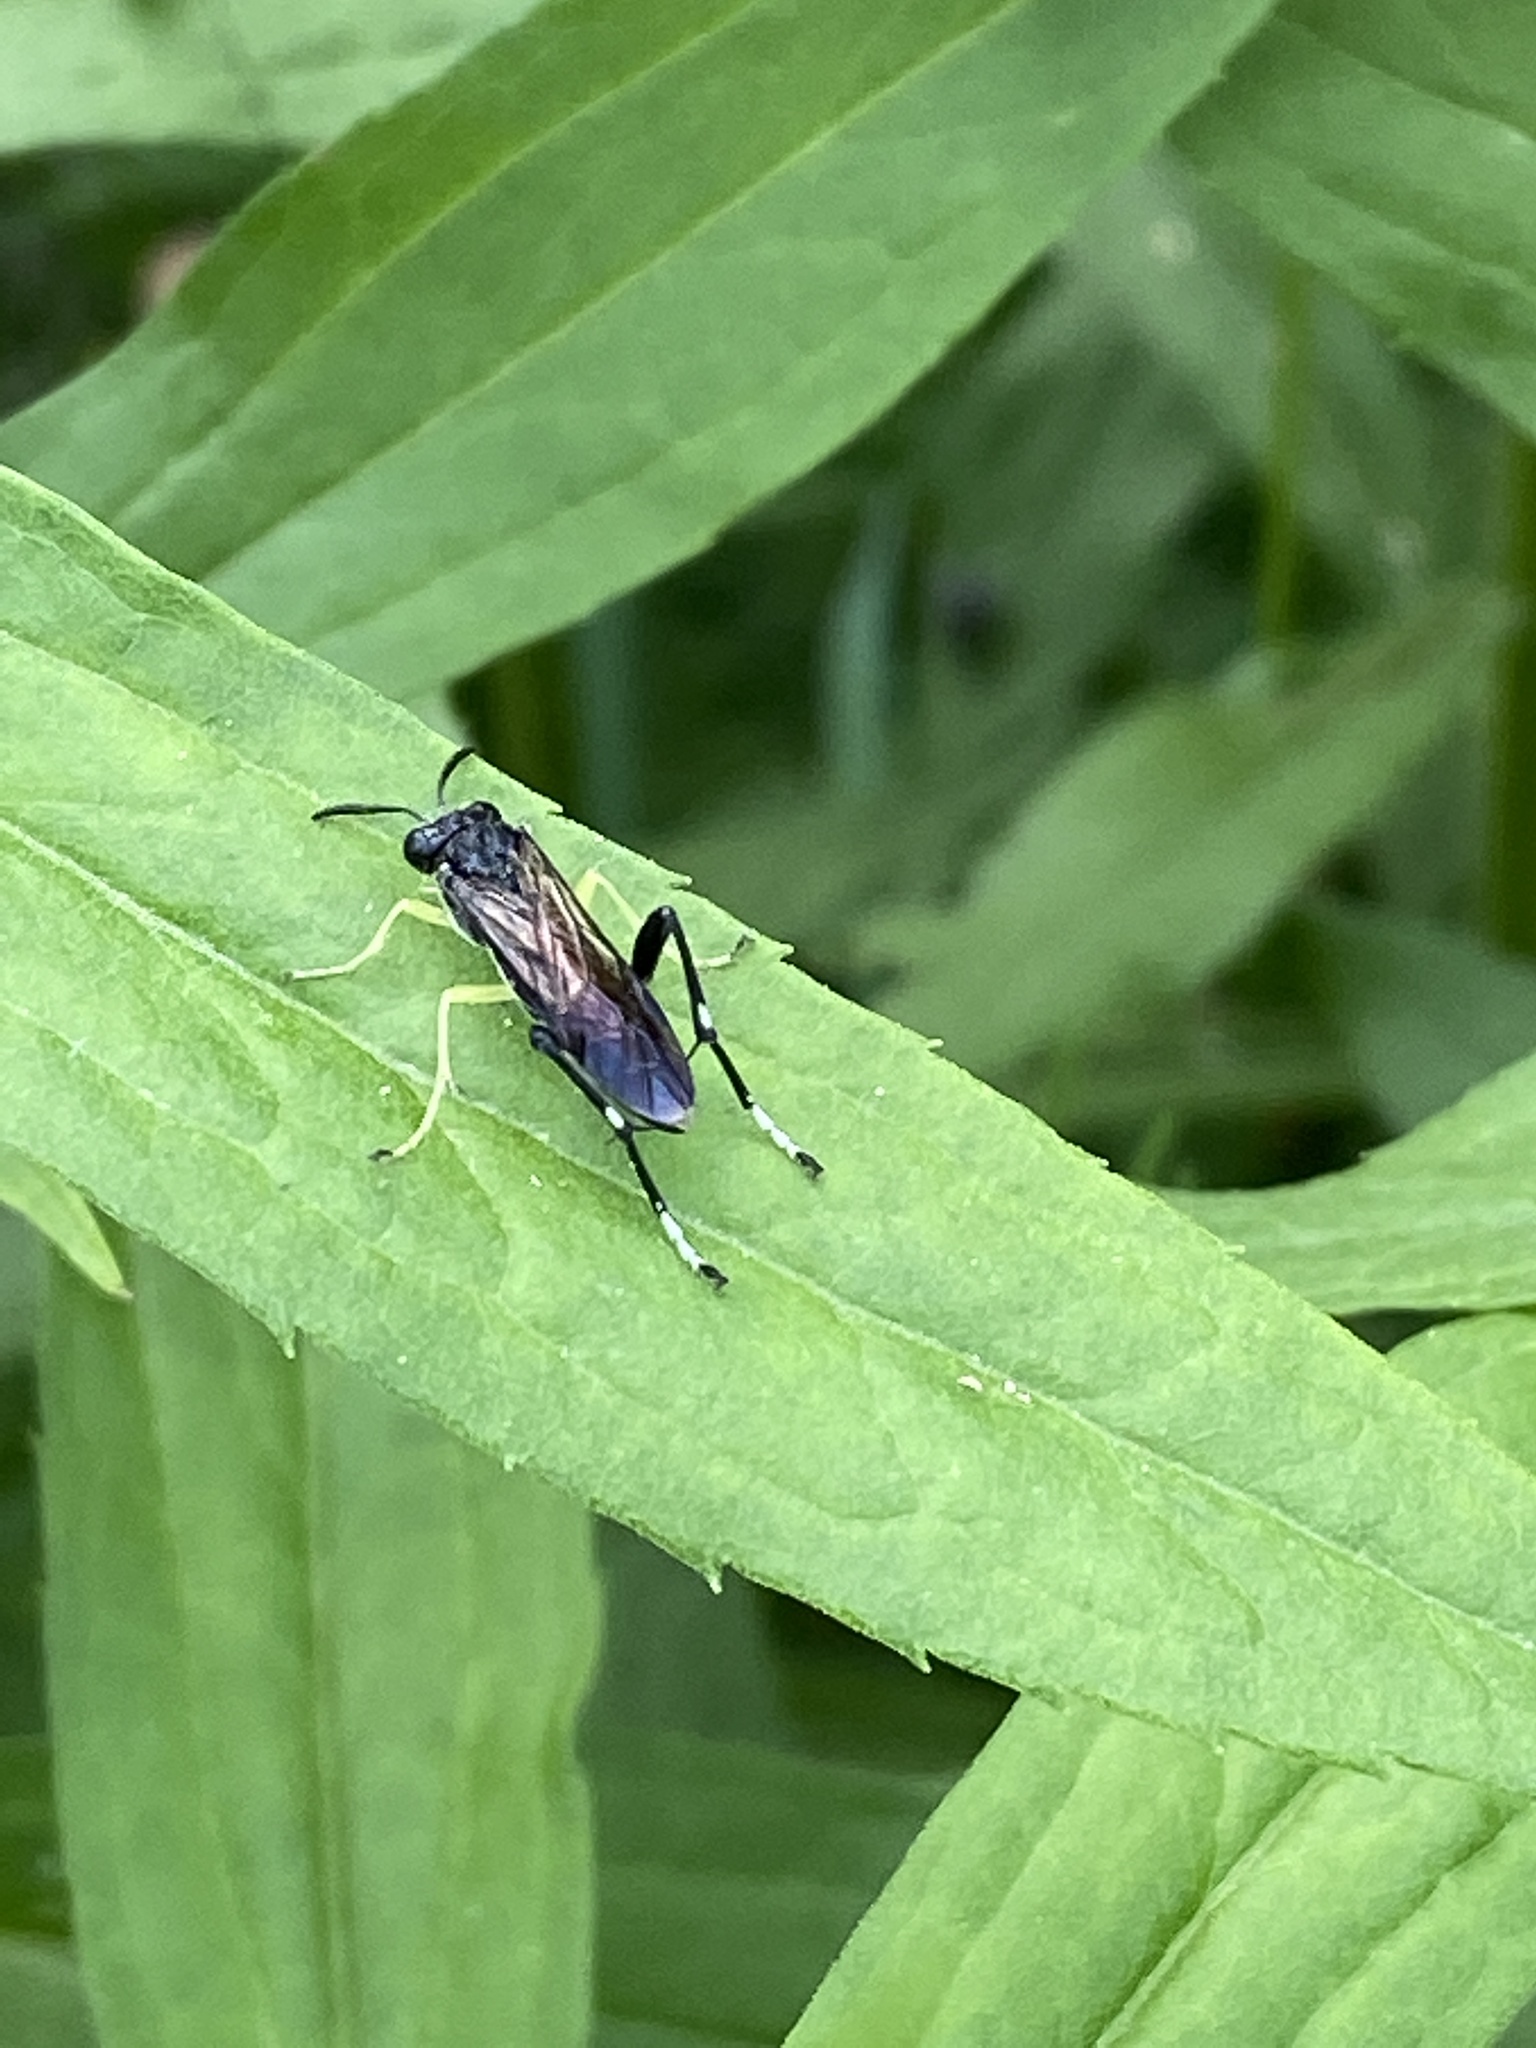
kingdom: Animalia
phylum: Arthropoda
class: Insecta
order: Hymenoptera
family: Tenthredinidae
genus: Macrophya
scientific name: Macrophya montana
